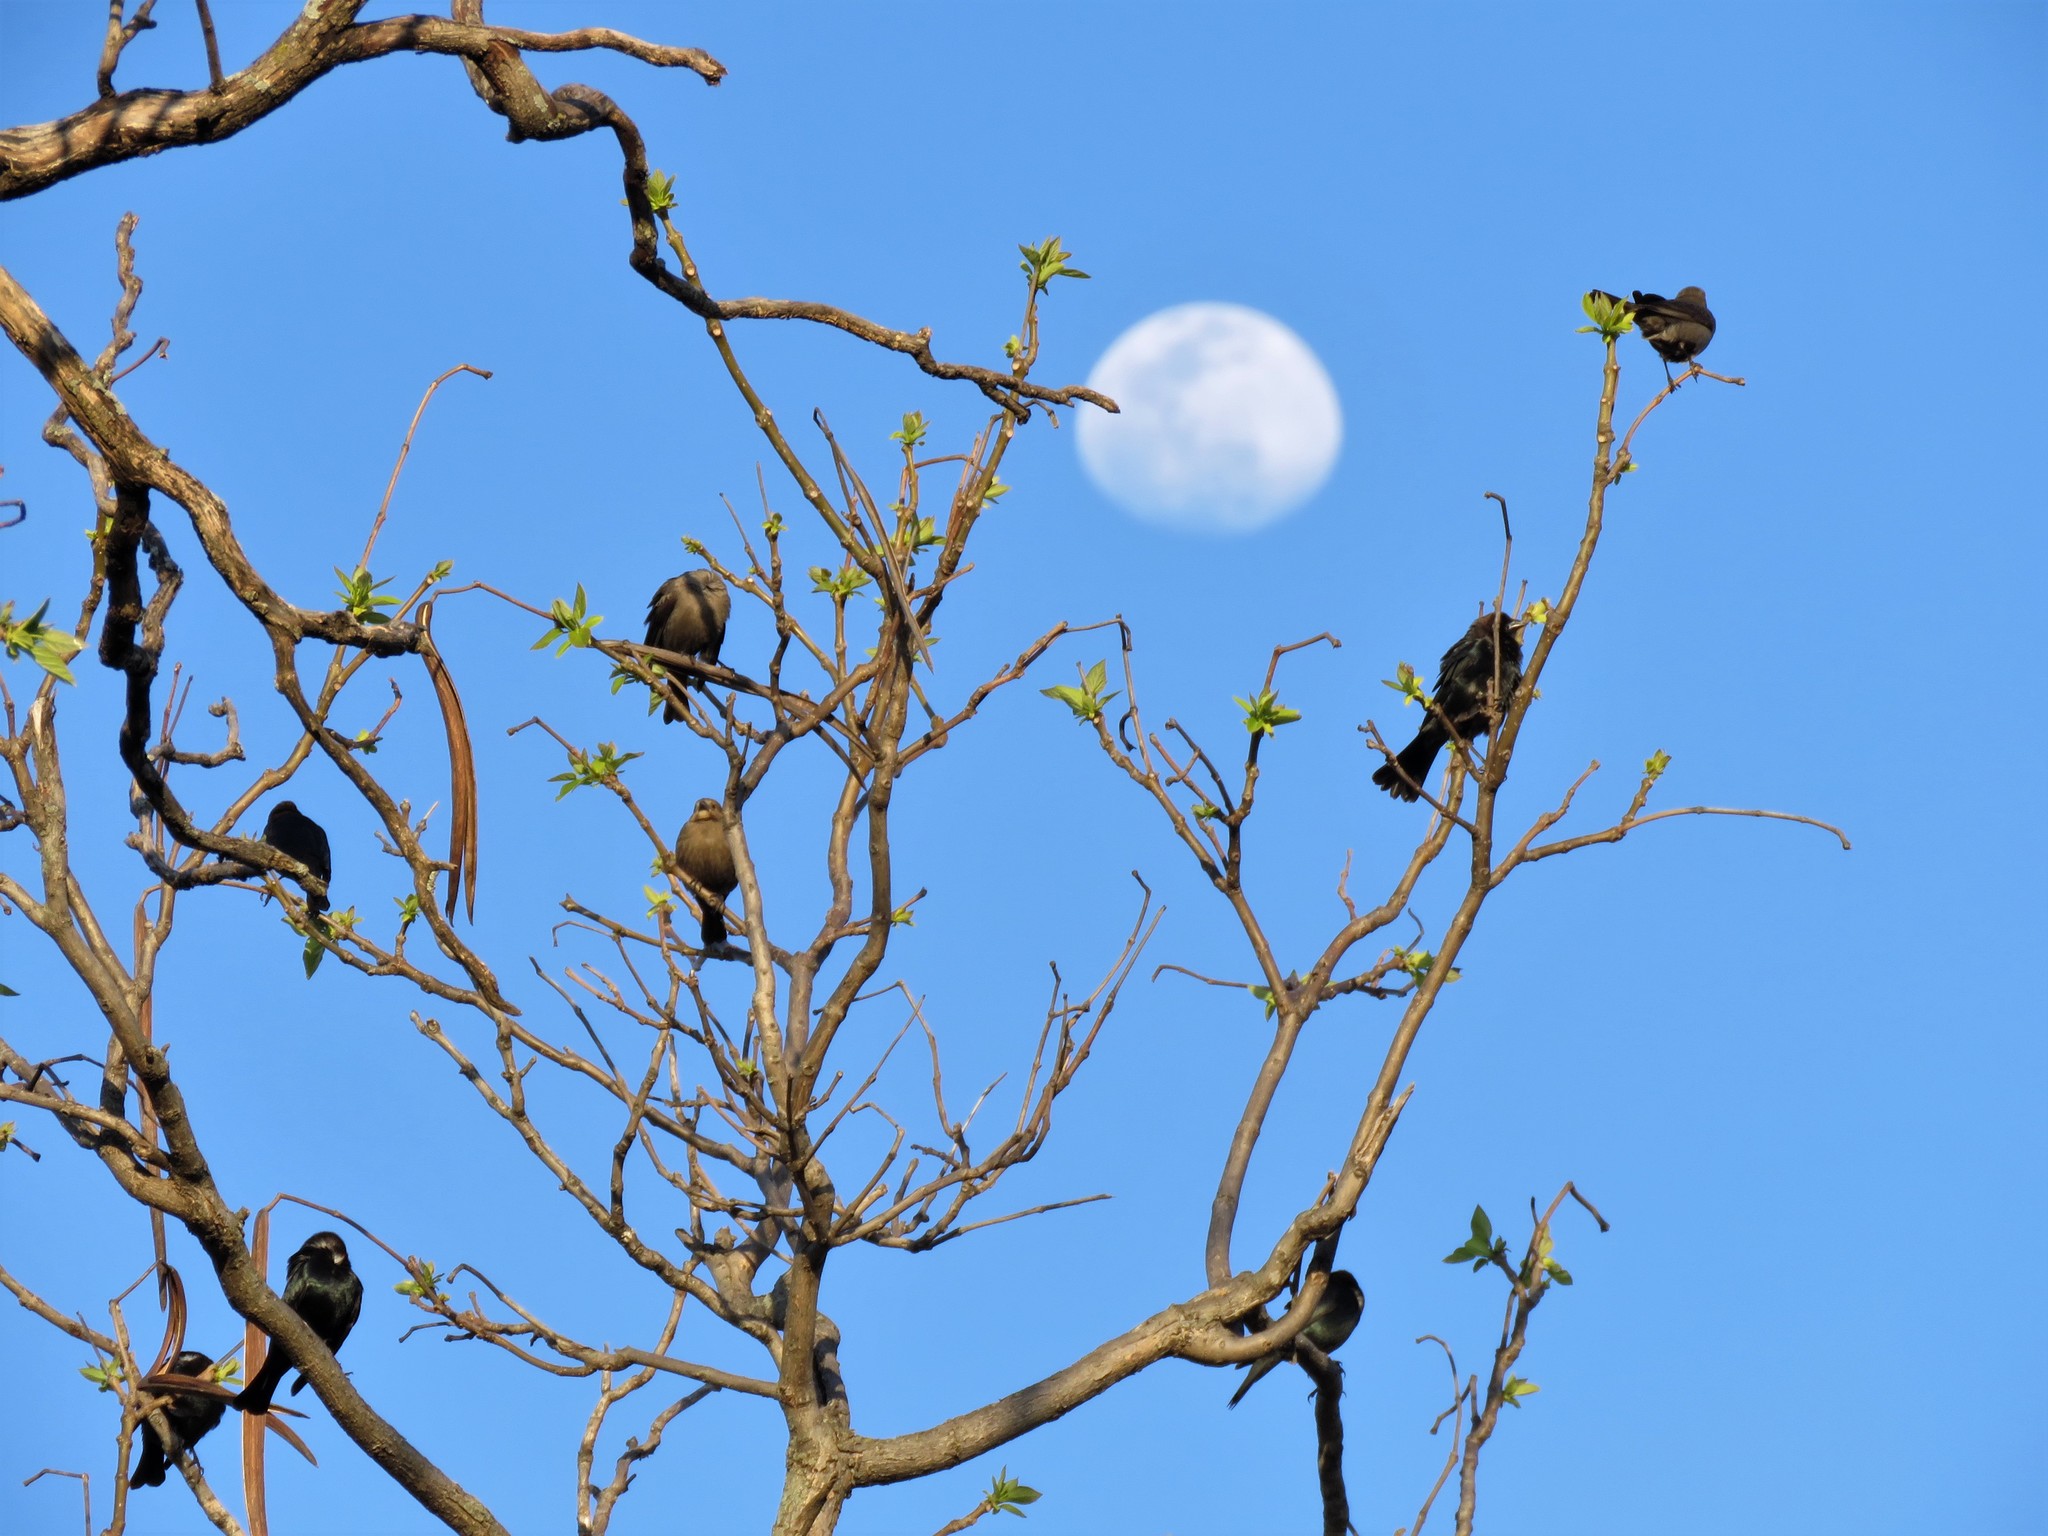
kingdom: Animalia
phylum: Chordata
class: Aves
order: Passeriformes
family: Icteridae
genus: Molothrus
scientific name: Molothrus ater
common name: Brown-headed cowbird
